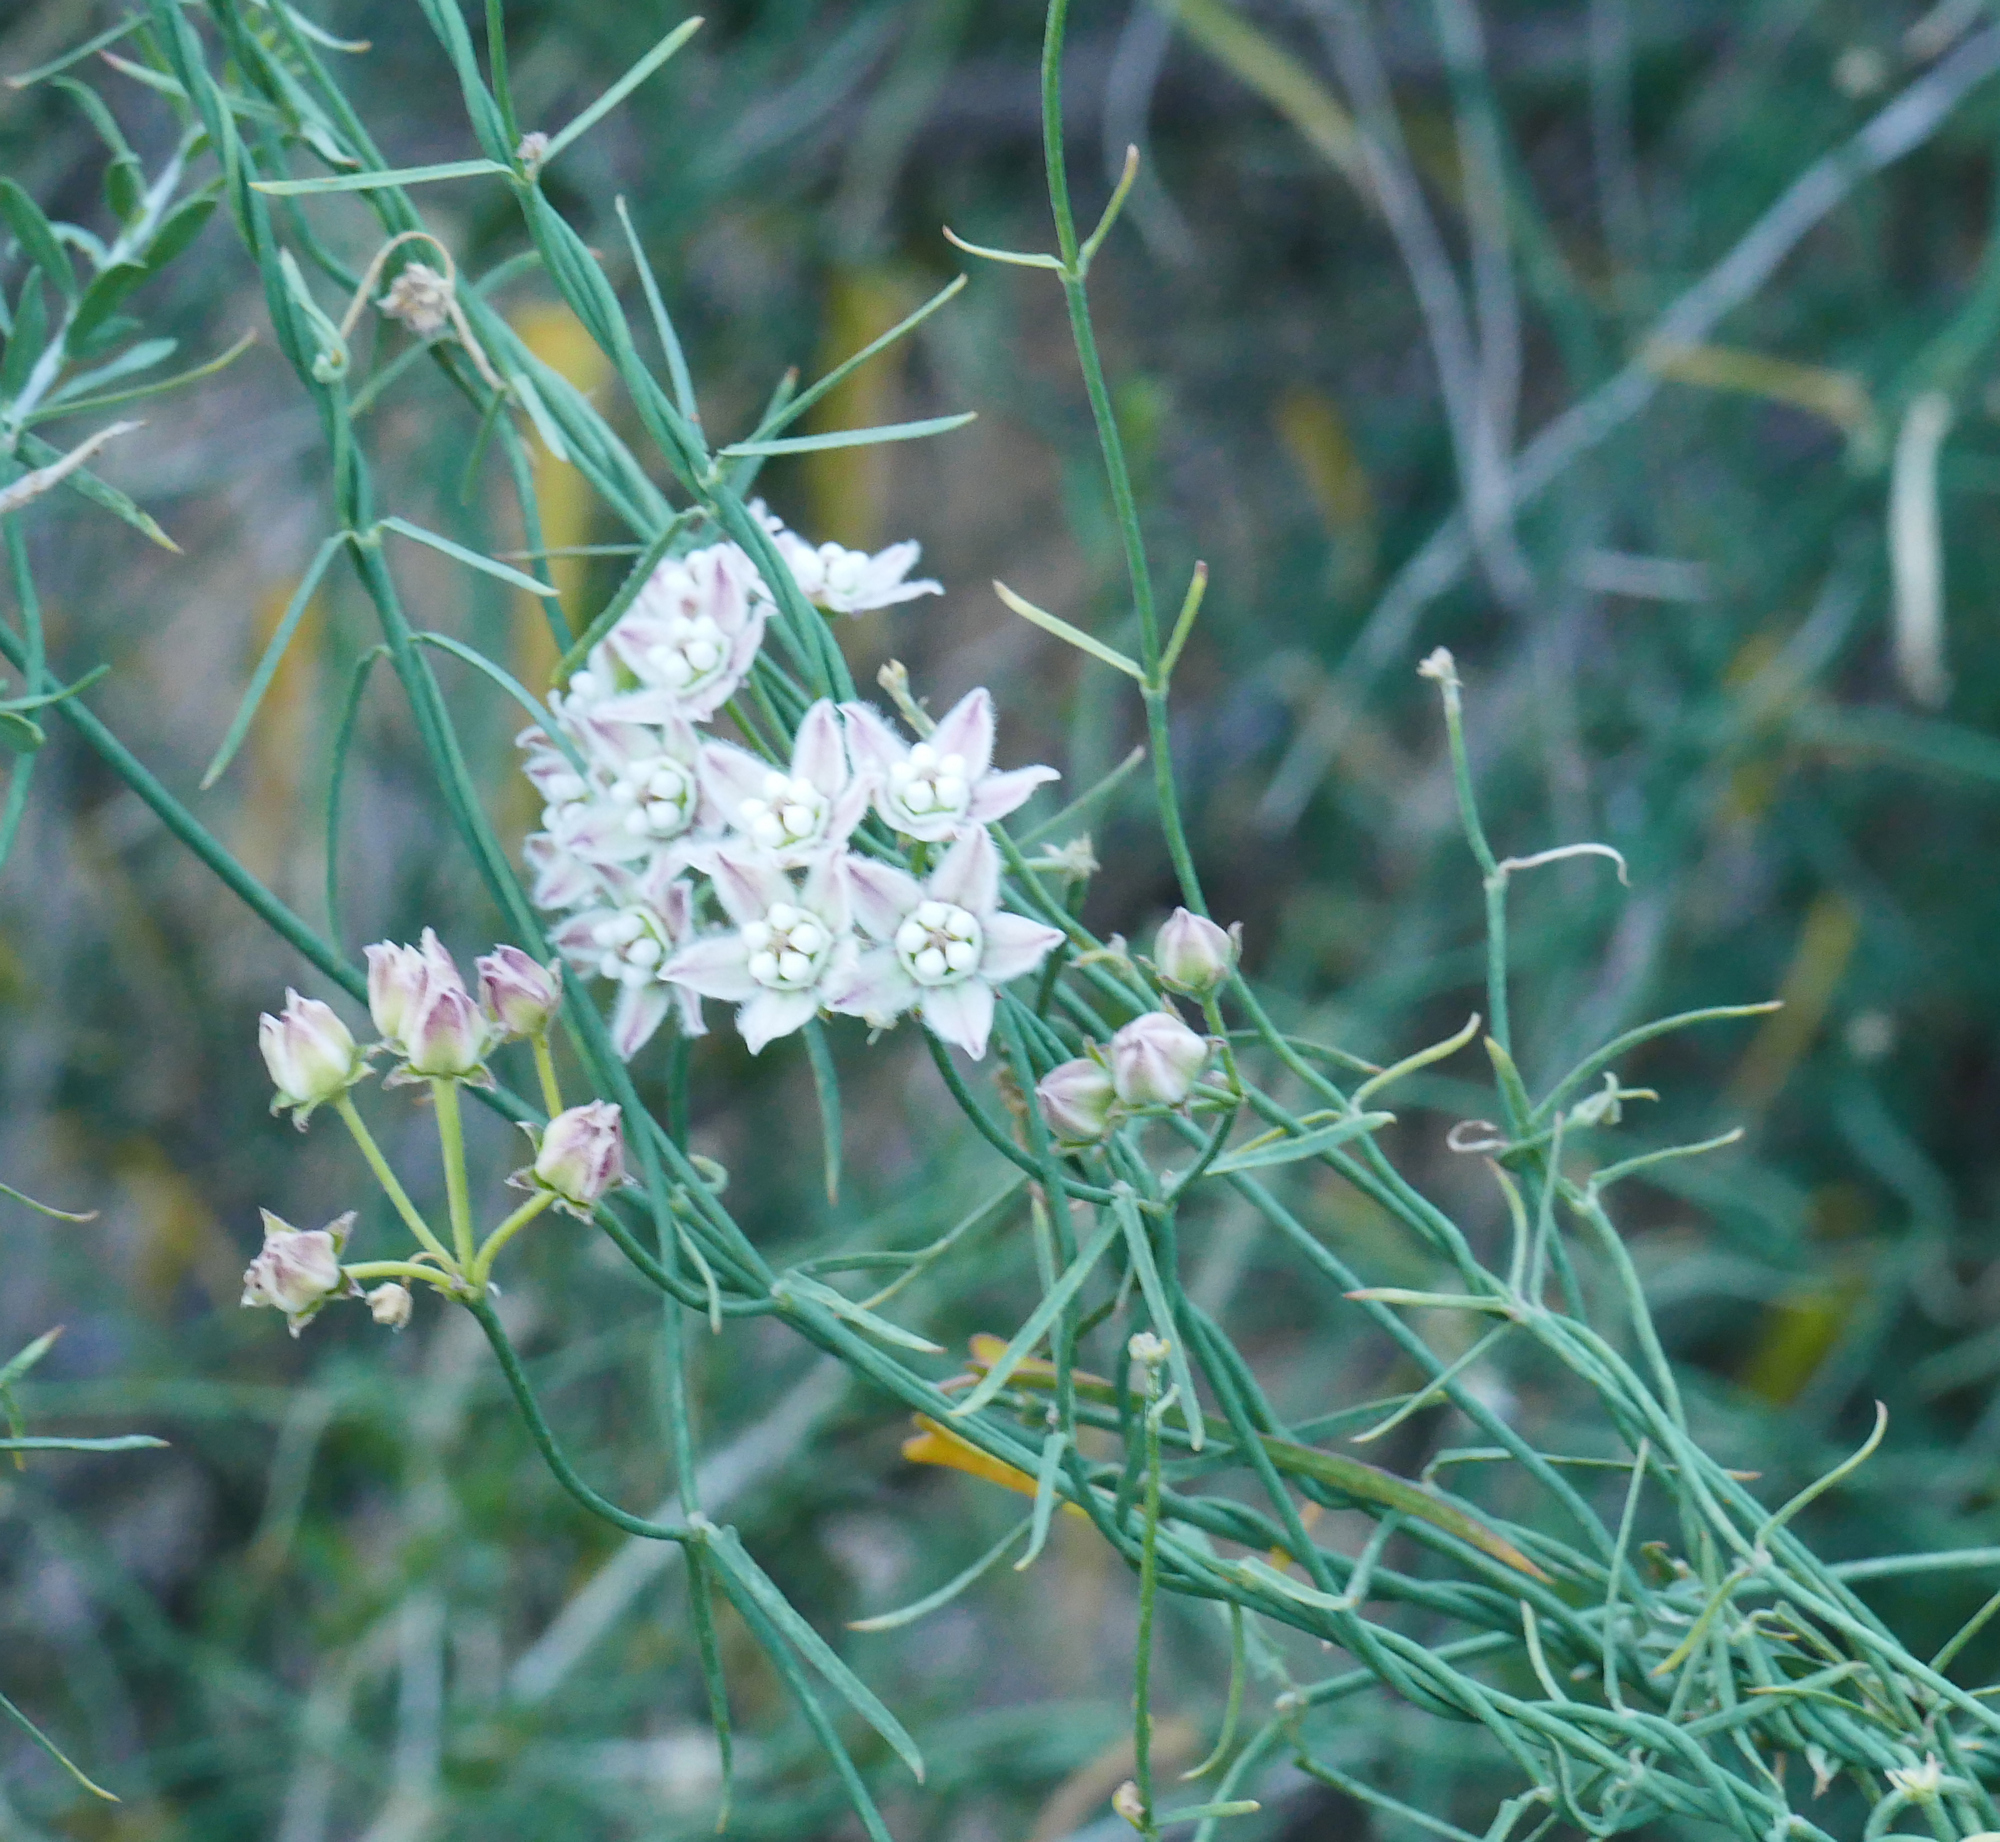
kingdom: Plantae
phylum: Tracheophyta
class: Magnoliopsida
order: Gentianales
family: Apocynaceae
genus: Funastrum
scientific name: Funastrum heterophyllum
